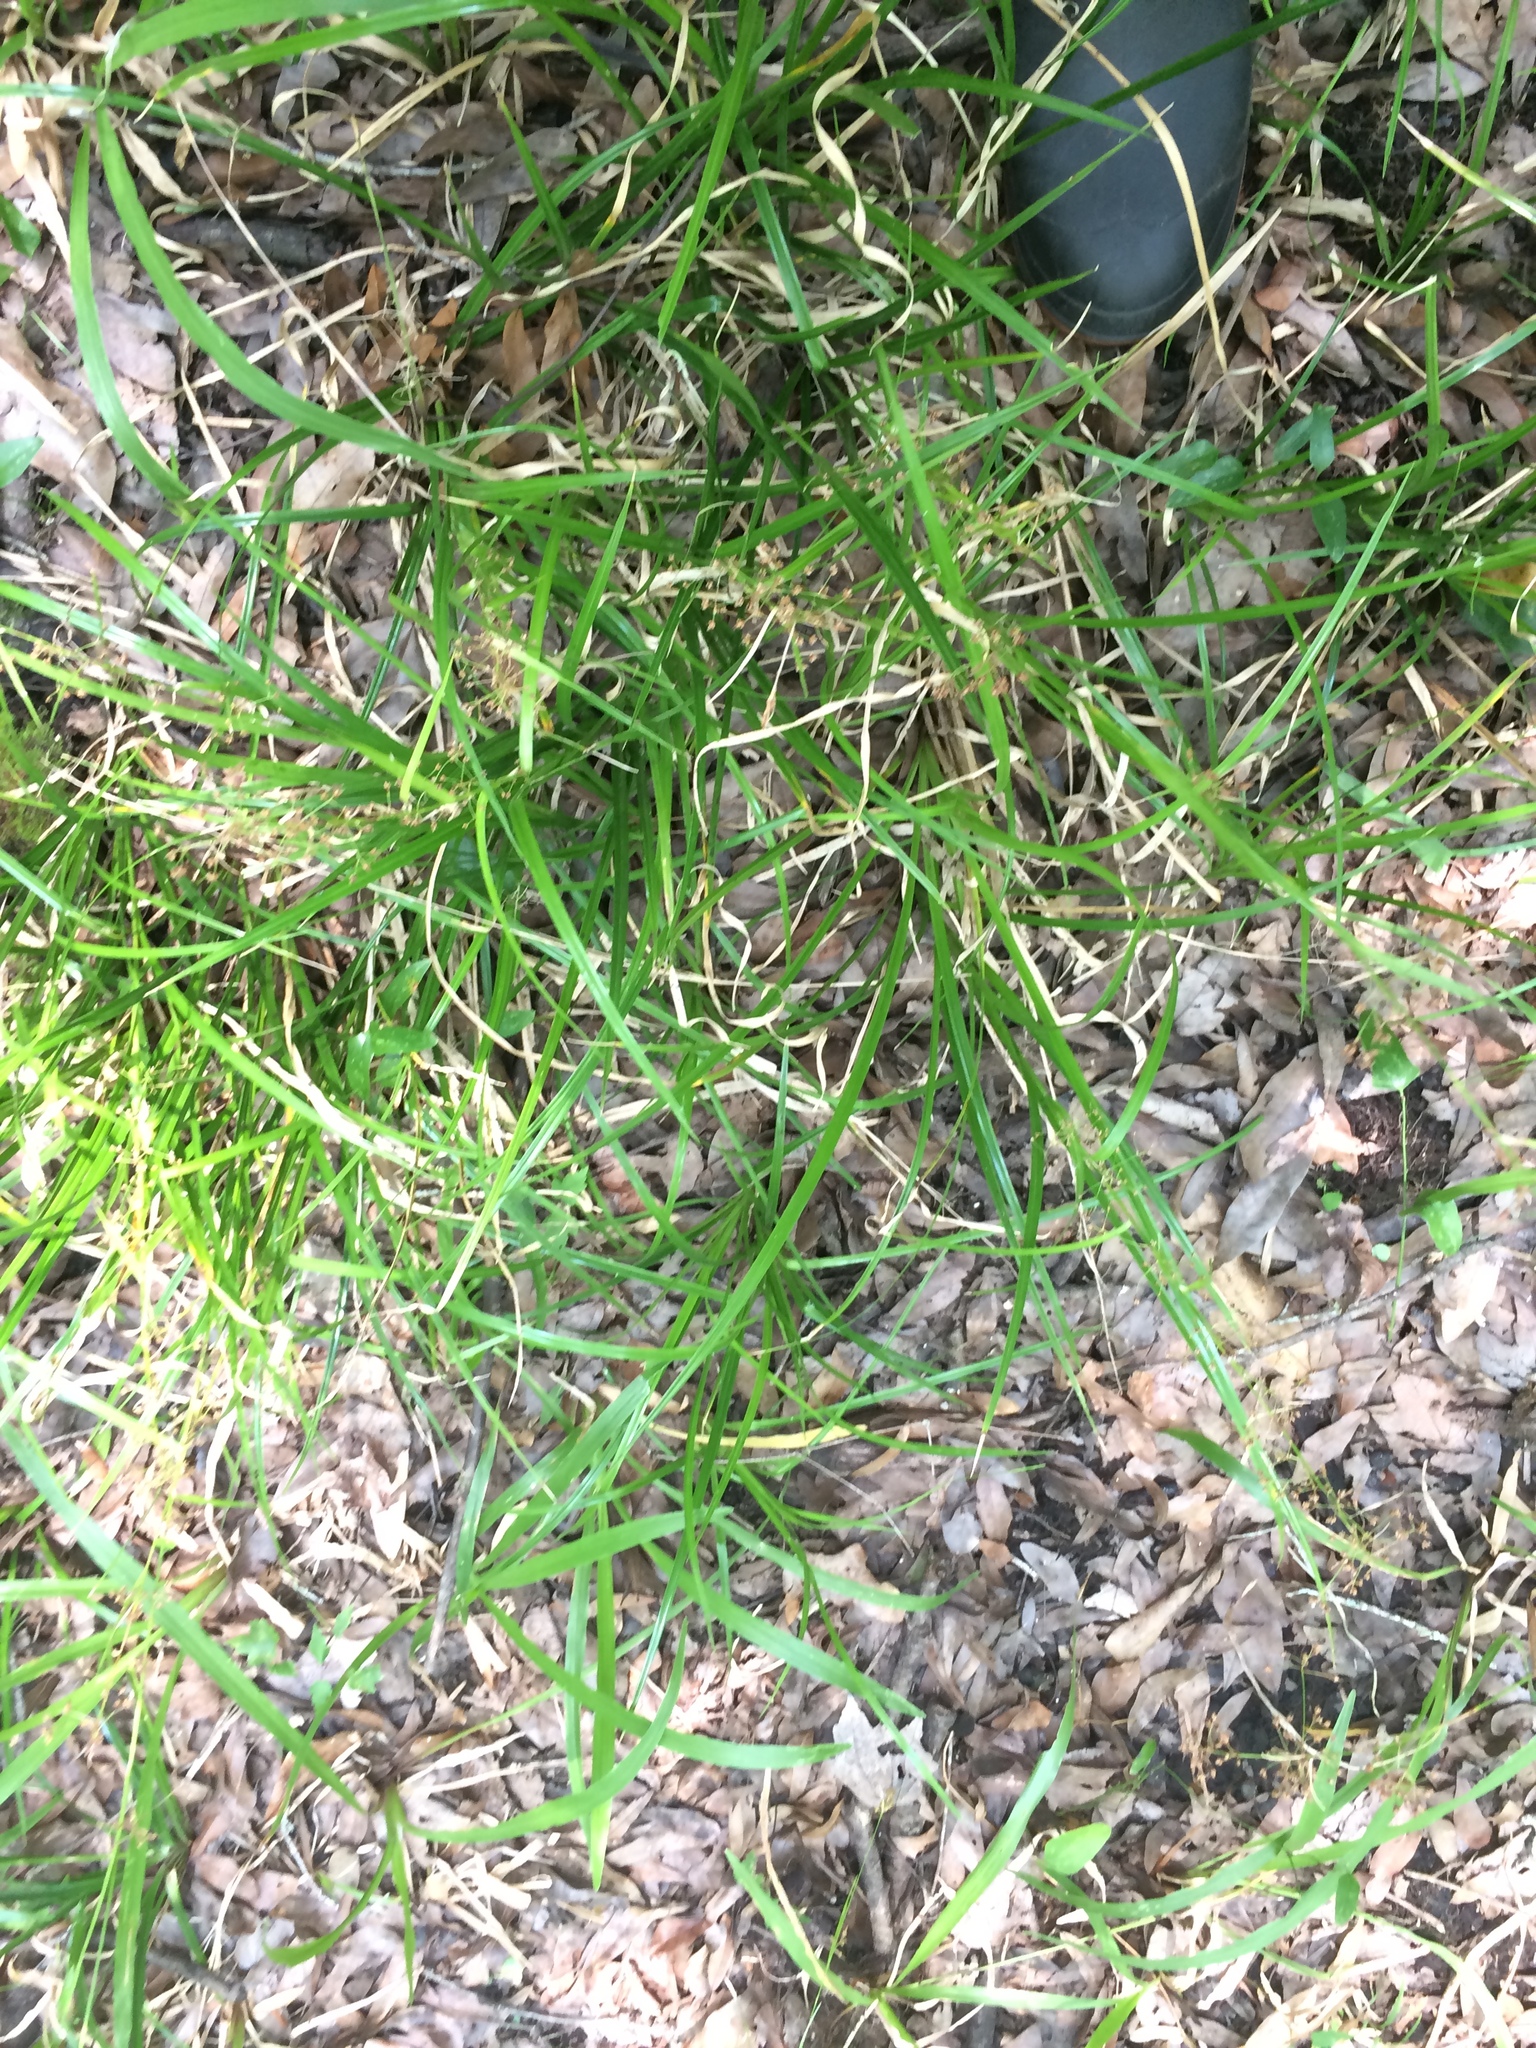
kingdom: Plantae
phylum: Tracheophyta
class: Liliopsida
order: Poales
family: Cyperaceae
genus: Rhynchospora
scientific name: Rhynchospora miliacea
